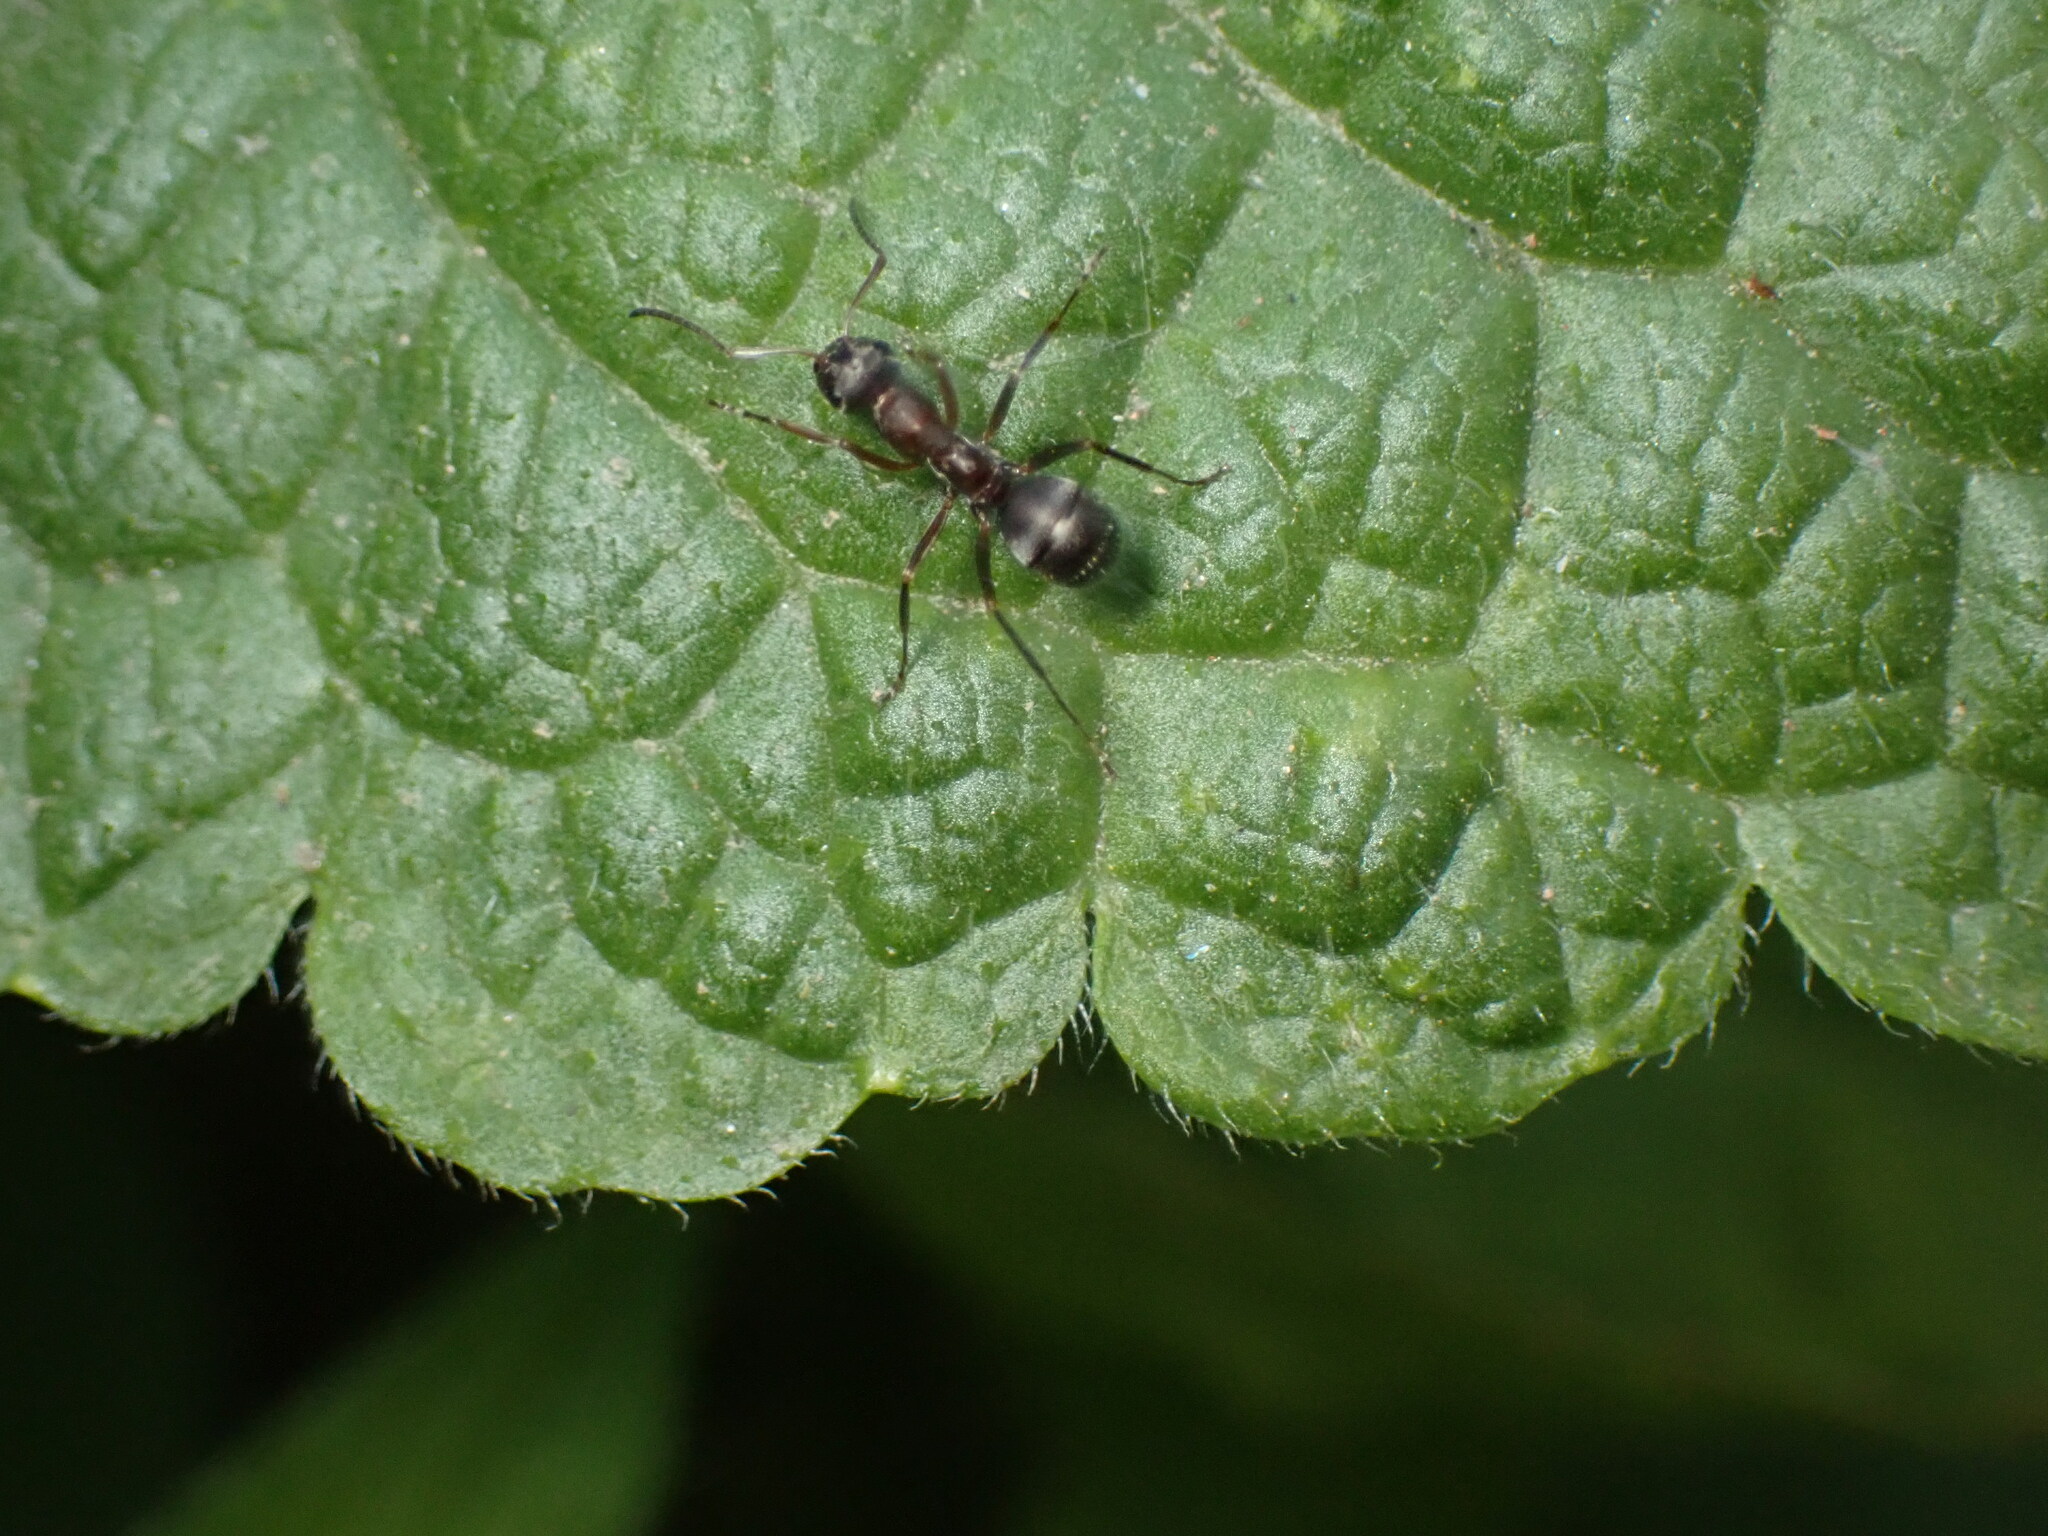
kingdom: Animalia
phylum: Arthropoda
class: Insecta
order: Hymenoptera
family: Formicidae
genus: Formica
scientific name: Formica cunicularia
